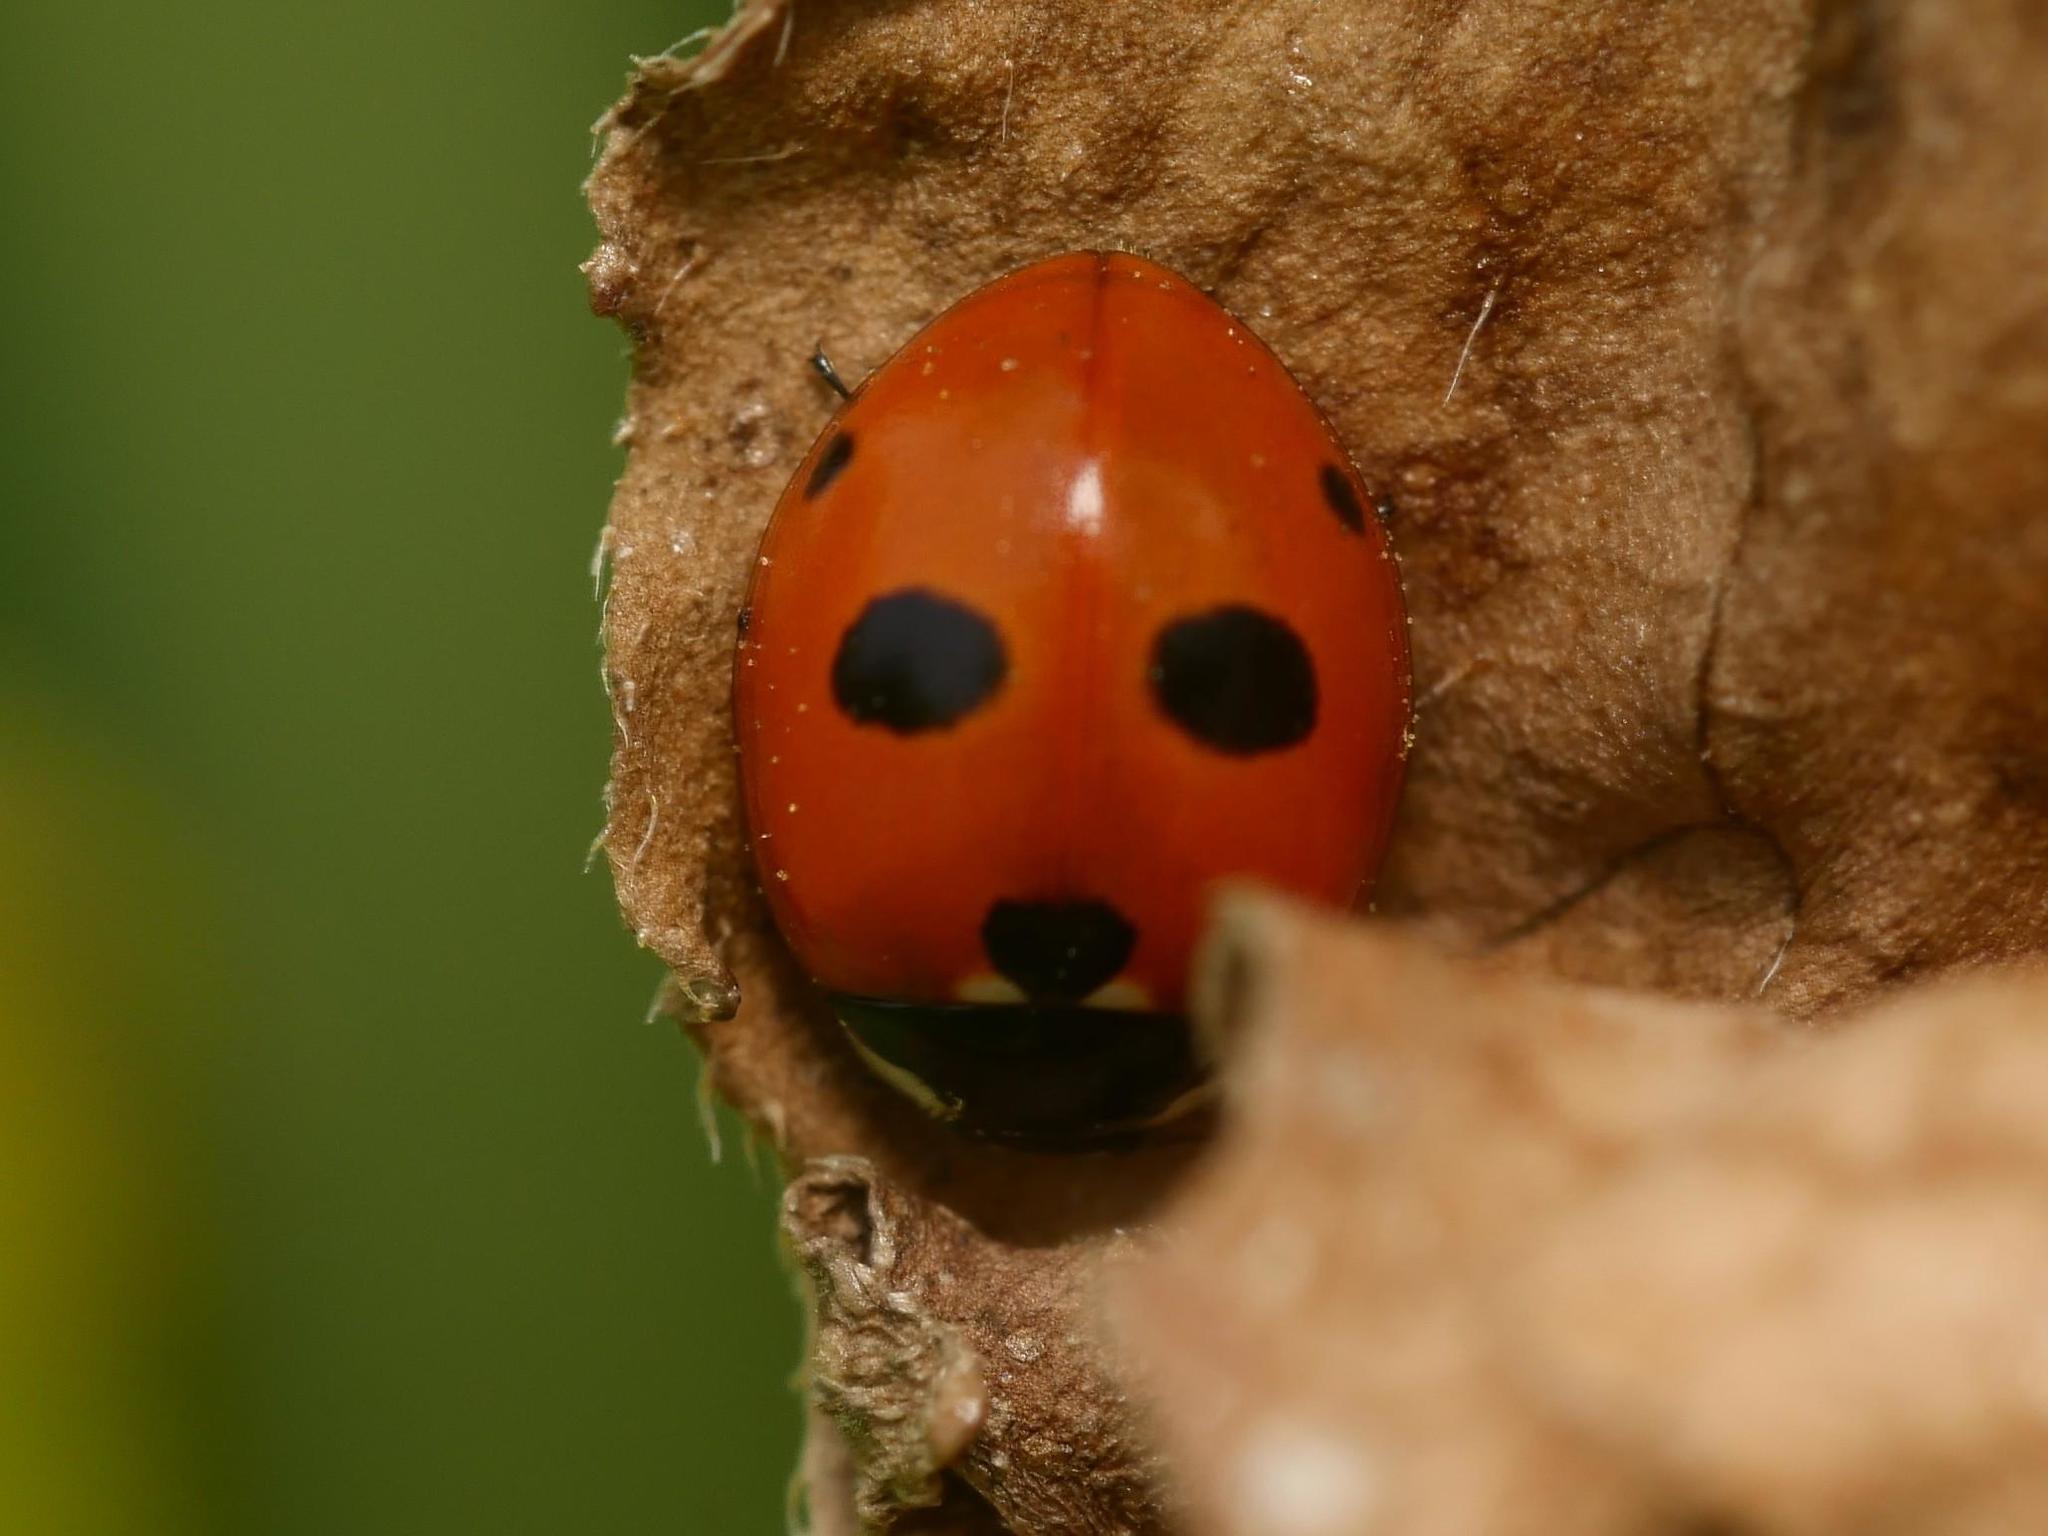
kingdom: Animalia
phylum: Arthropoda
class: Insecta
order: Coleoptera
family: Coccinellidae
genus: Coccinella
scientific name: Coccinella quinquepunctata
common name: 5-spot ladybird
